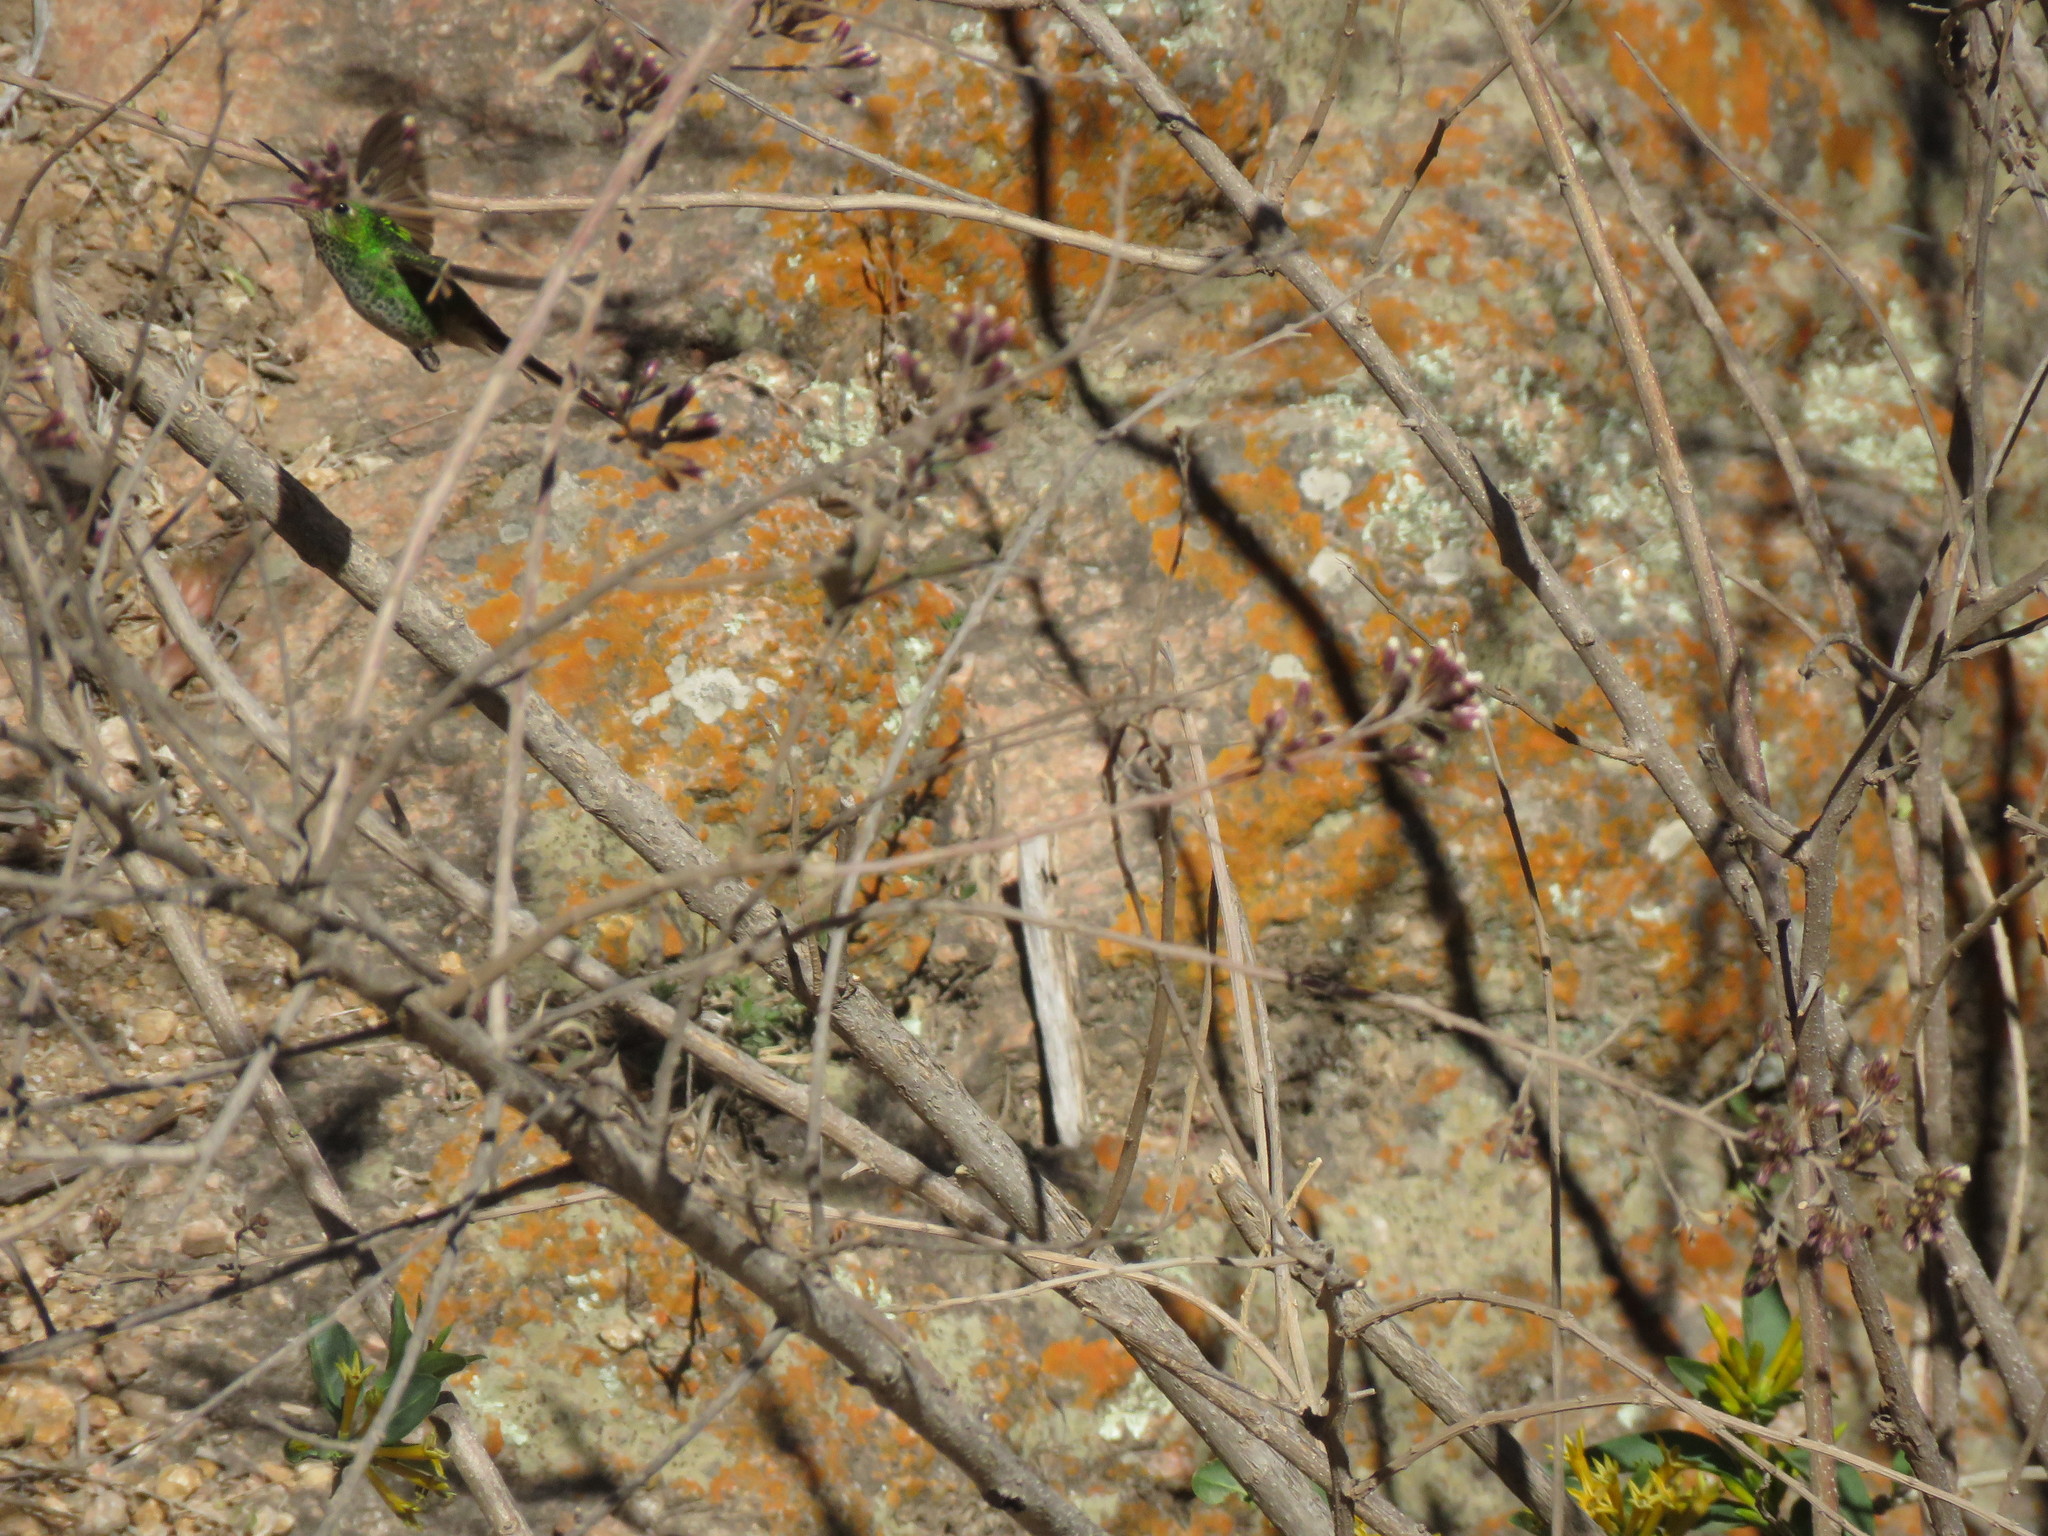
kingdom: Animalia
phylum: Chordata
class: Aves
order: Apodiformes
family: Trochilidae
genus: Sappho
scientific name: Sappho sparganurus
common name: Red-tailed comet
